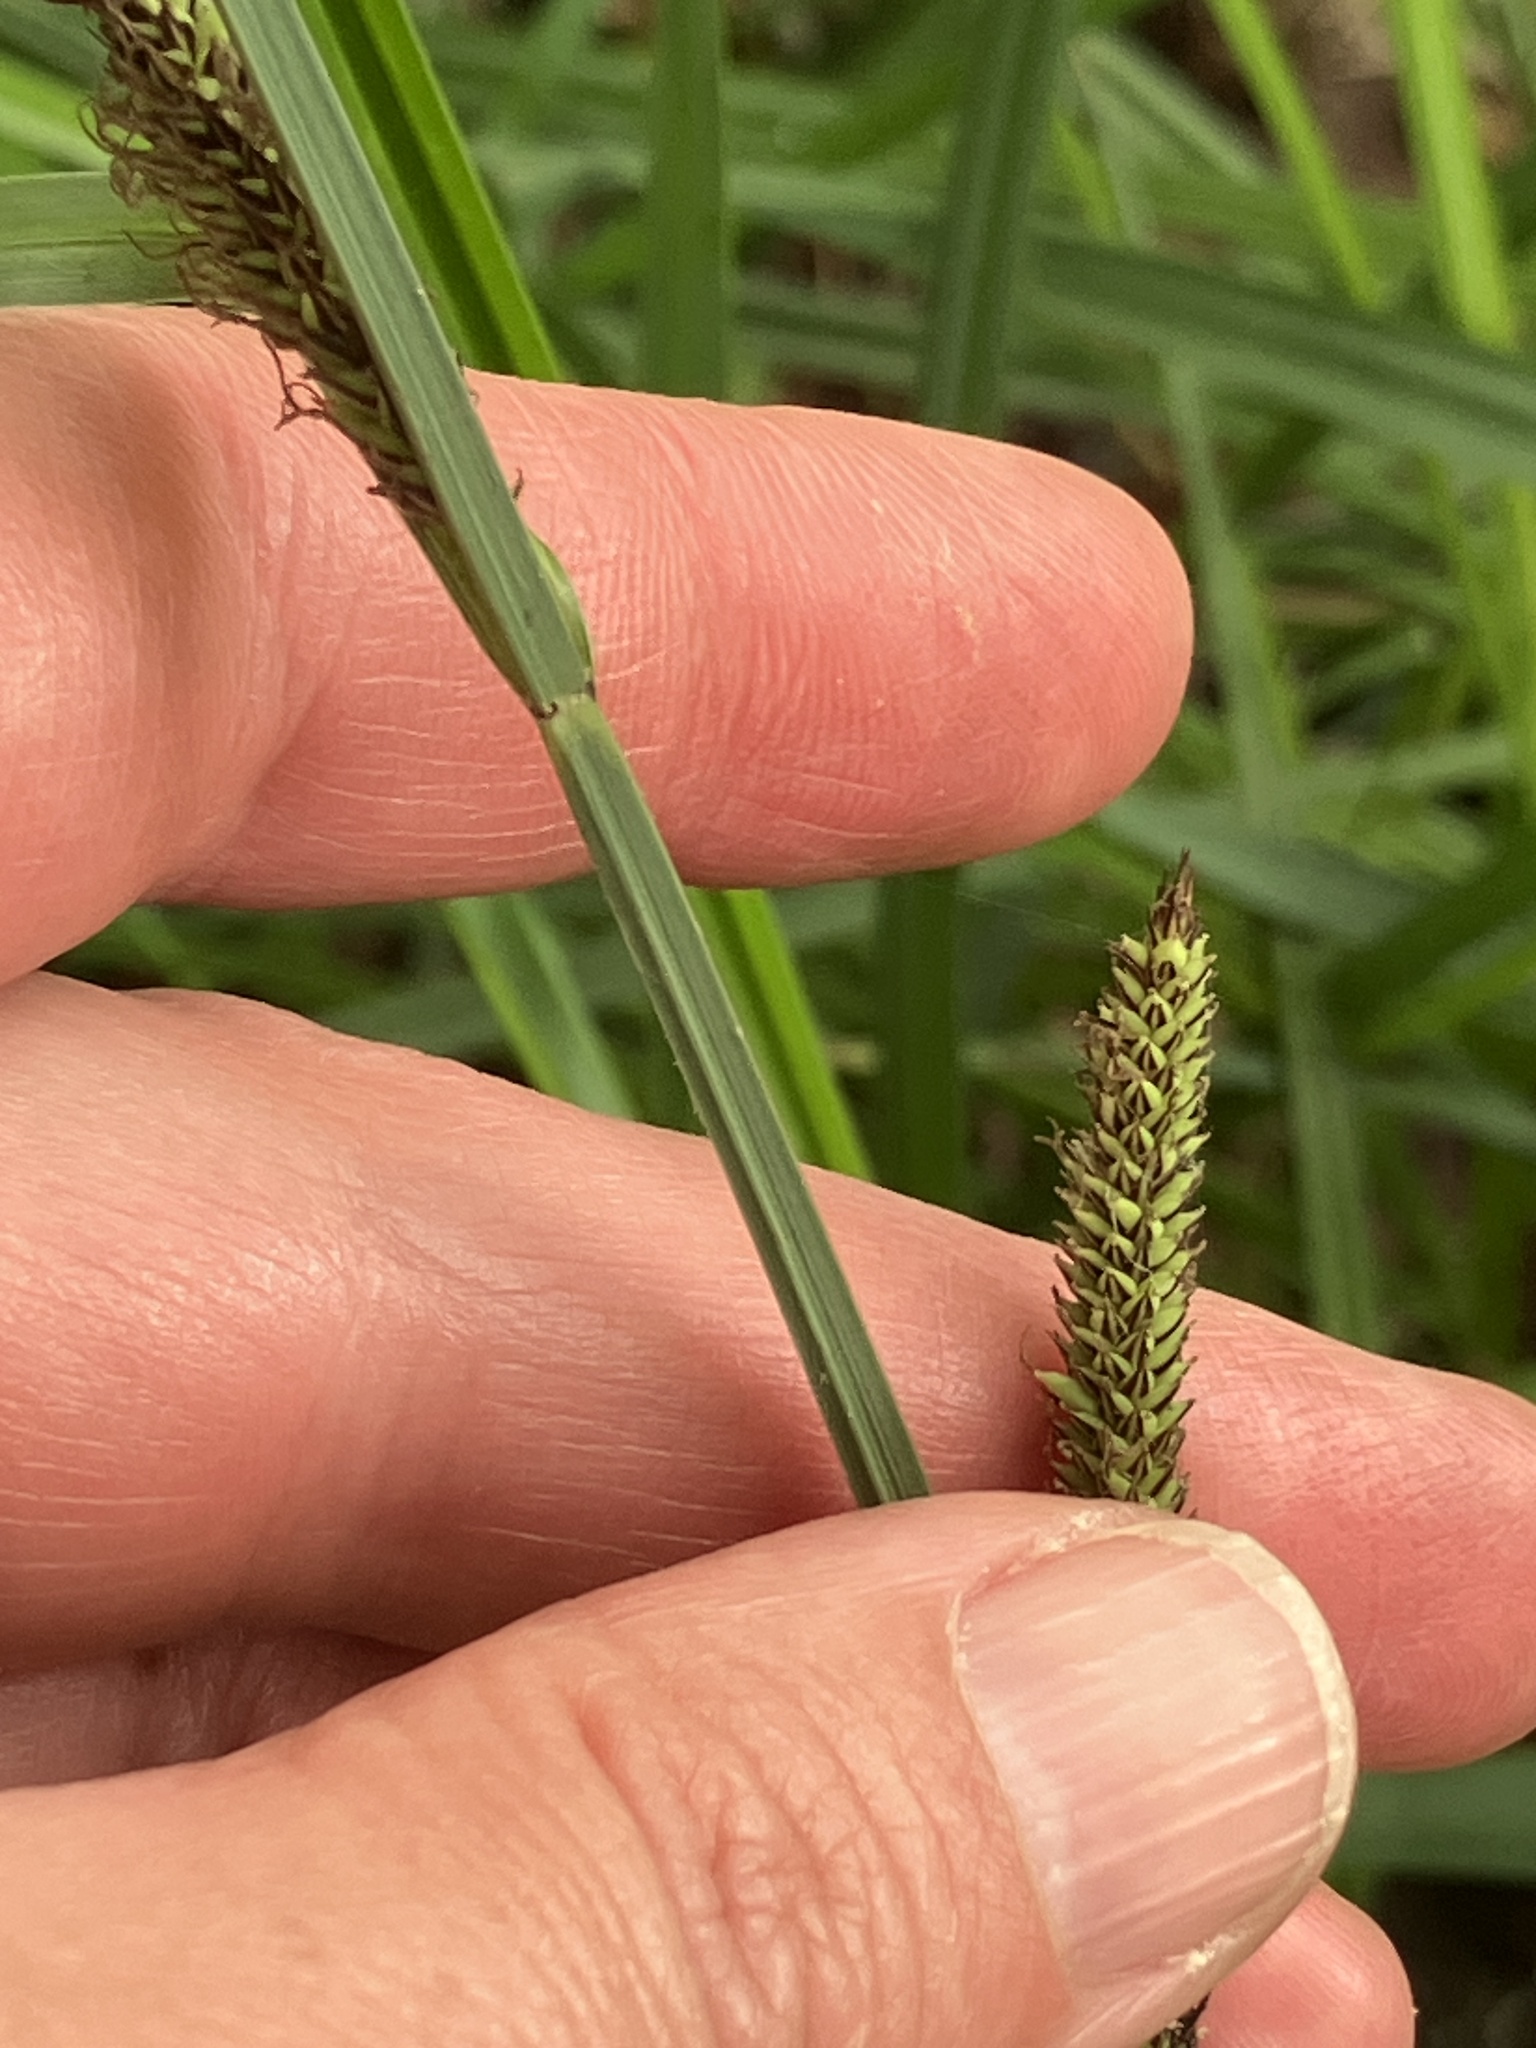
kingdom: Plantae
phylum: Tracheophyta
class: Liliopsida
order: Poales
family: Cyperaceae
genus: Carex
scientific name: Carex acutiformis
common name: Lesser pond-sedge
